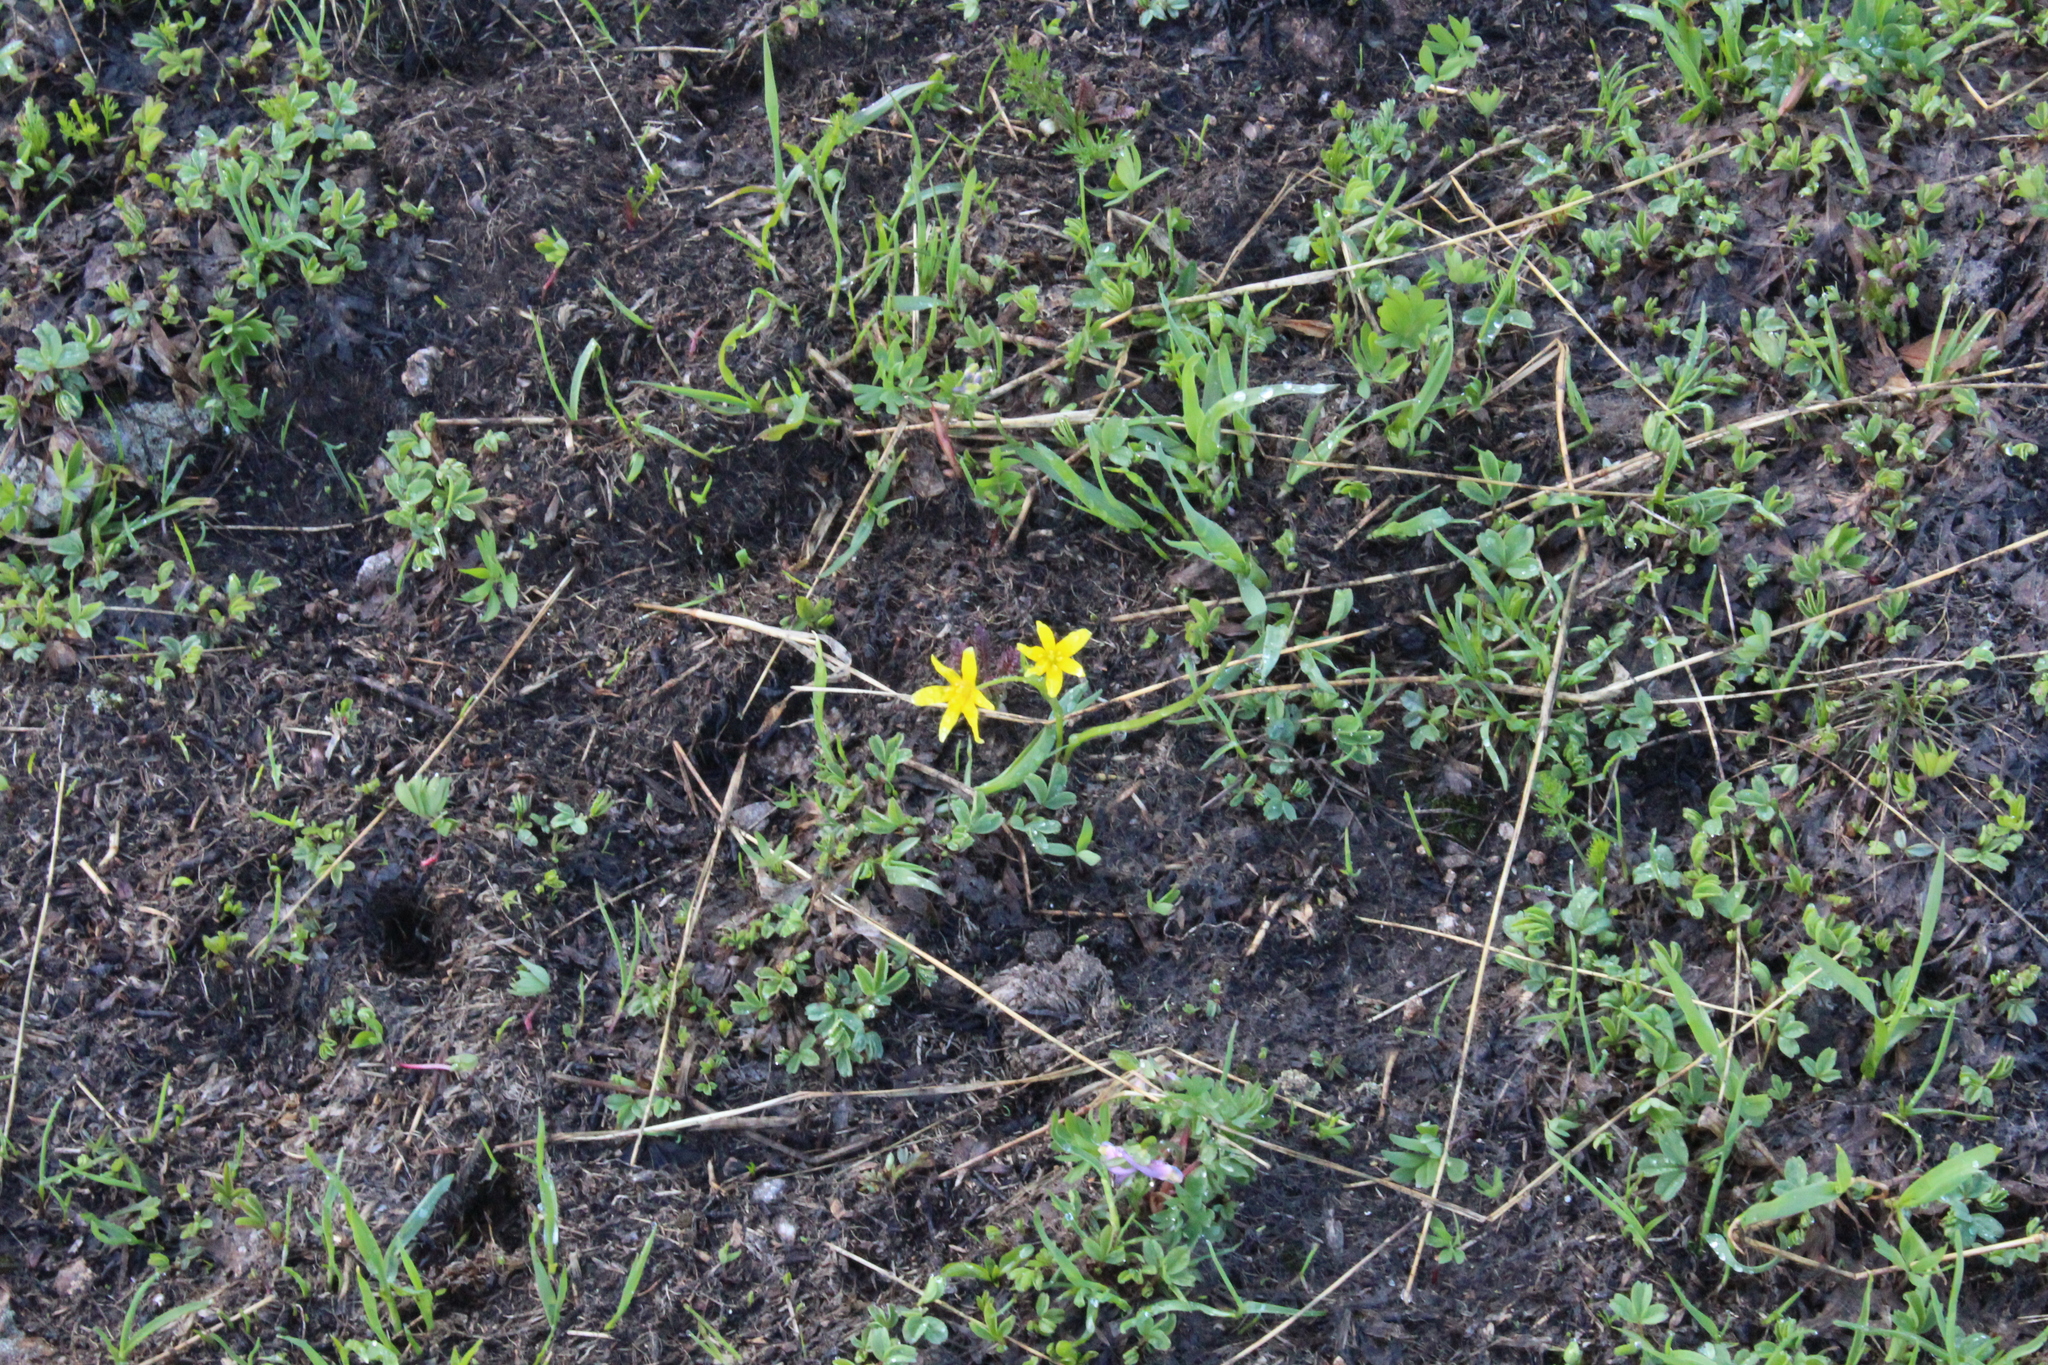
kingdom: Plantae
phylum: Tracheophyta
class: Liliopsida
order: Liliales
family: Liliaceae
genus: Gagea
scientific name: Gagea fragifera
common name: Lily
